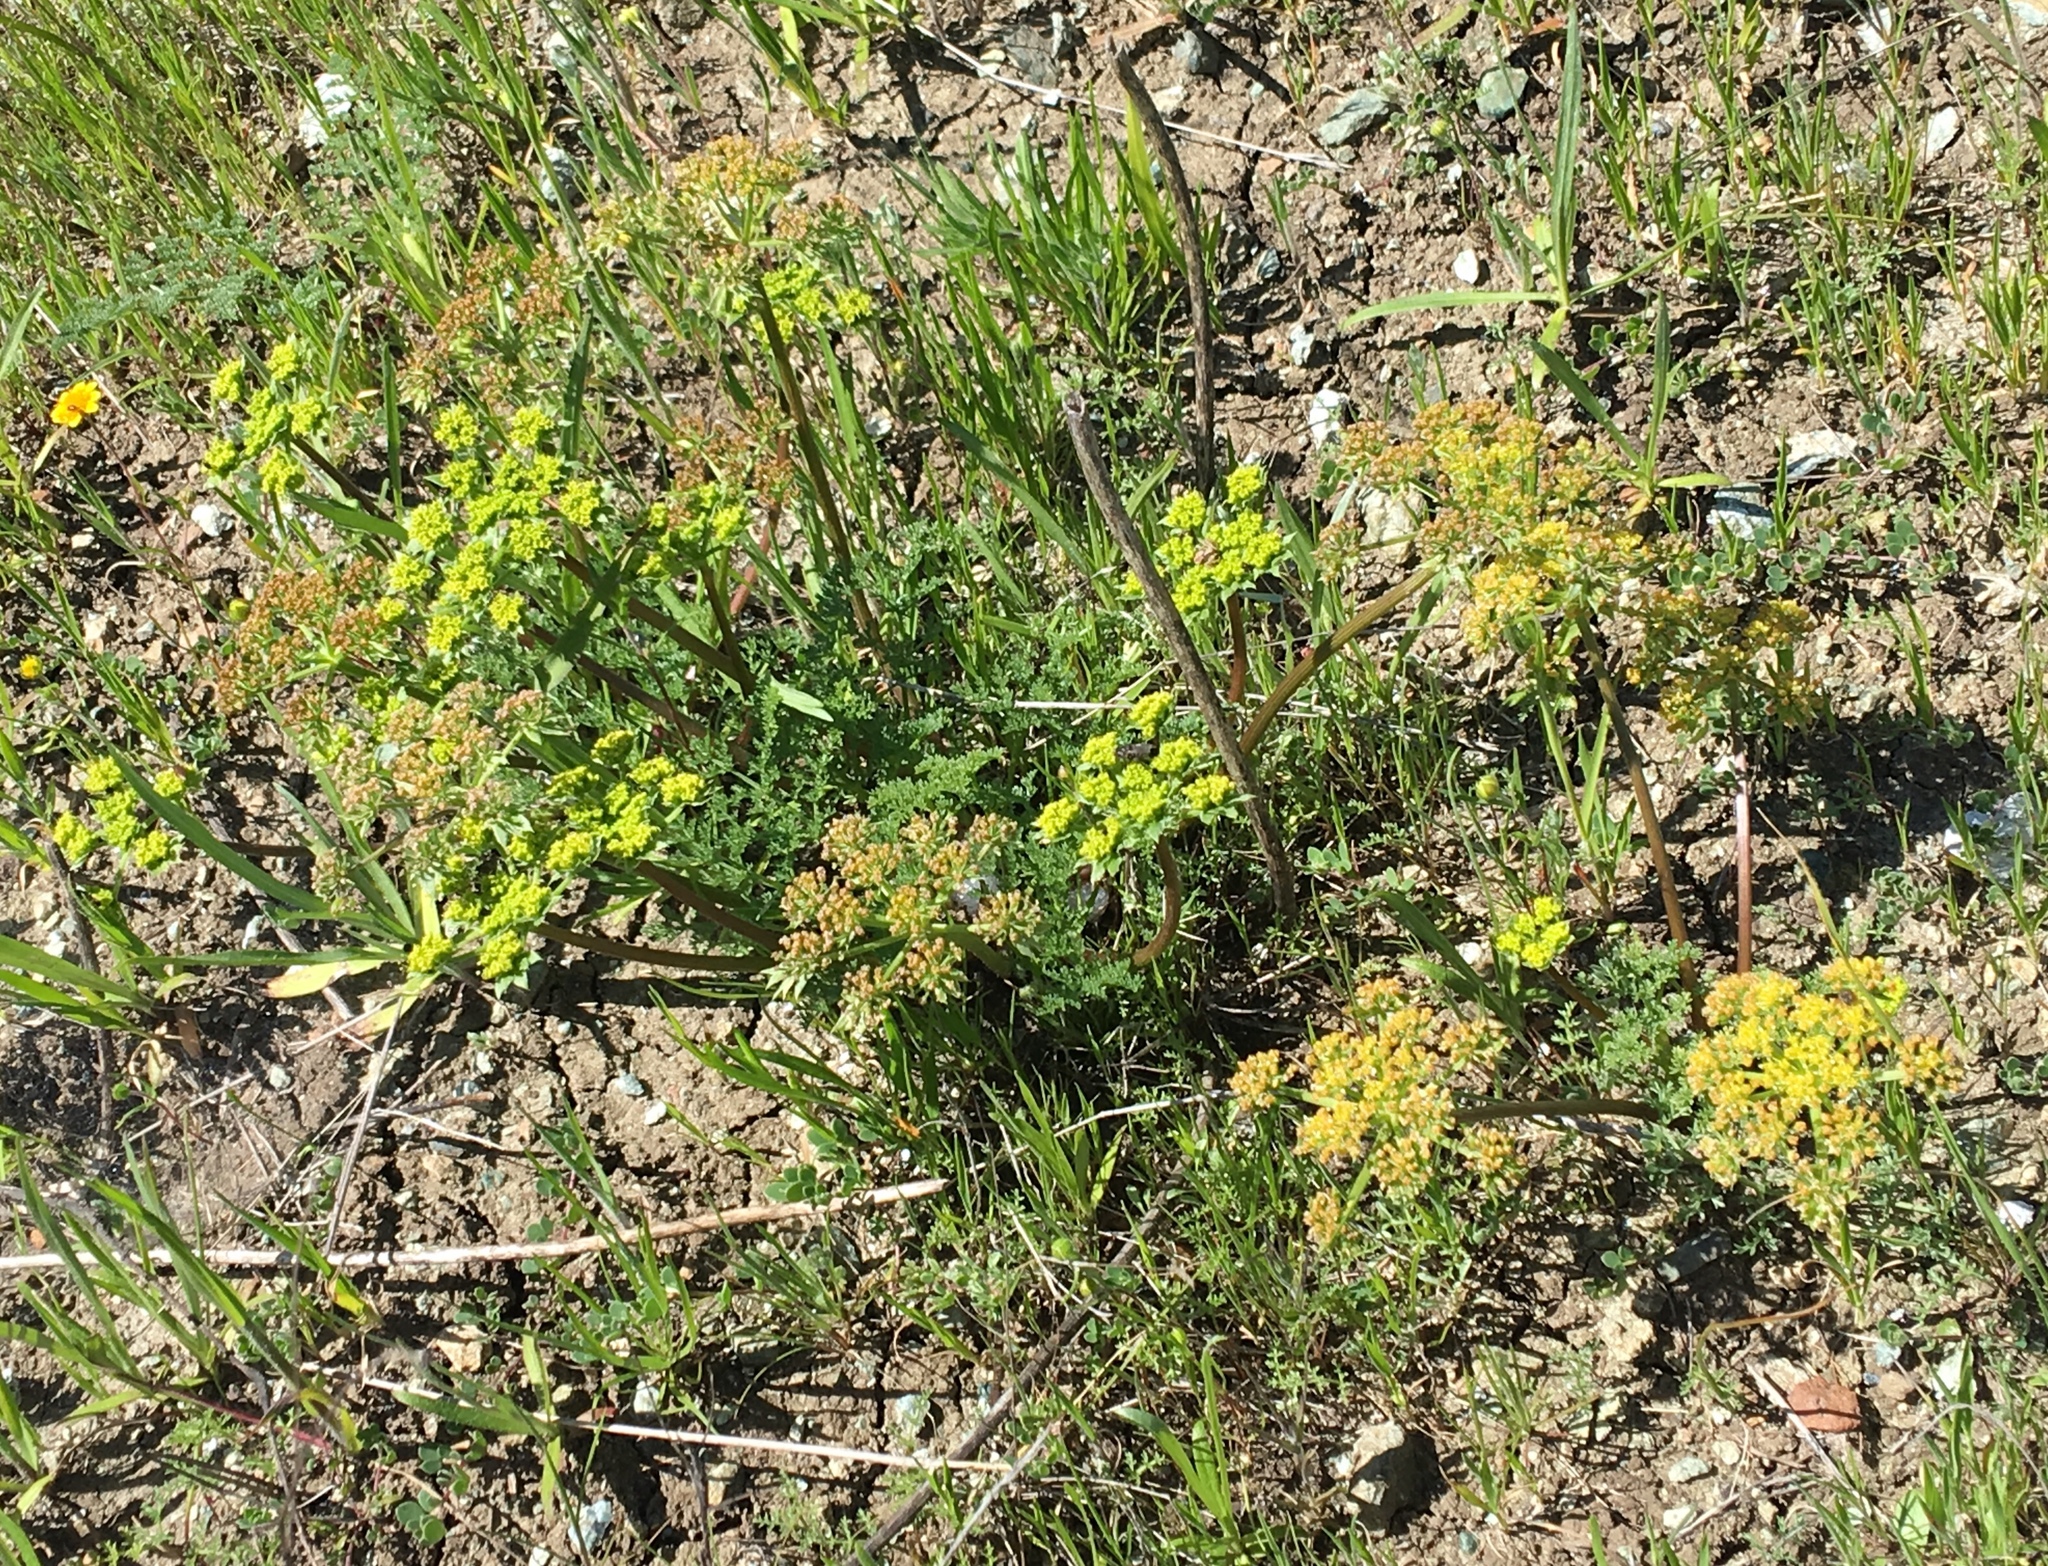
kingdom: Plantae
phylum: Tracheophyta
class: Magnoliopsida
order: Apiales
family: Apiaceae
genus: Lomatium
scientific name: Lomatium dasycarpum
